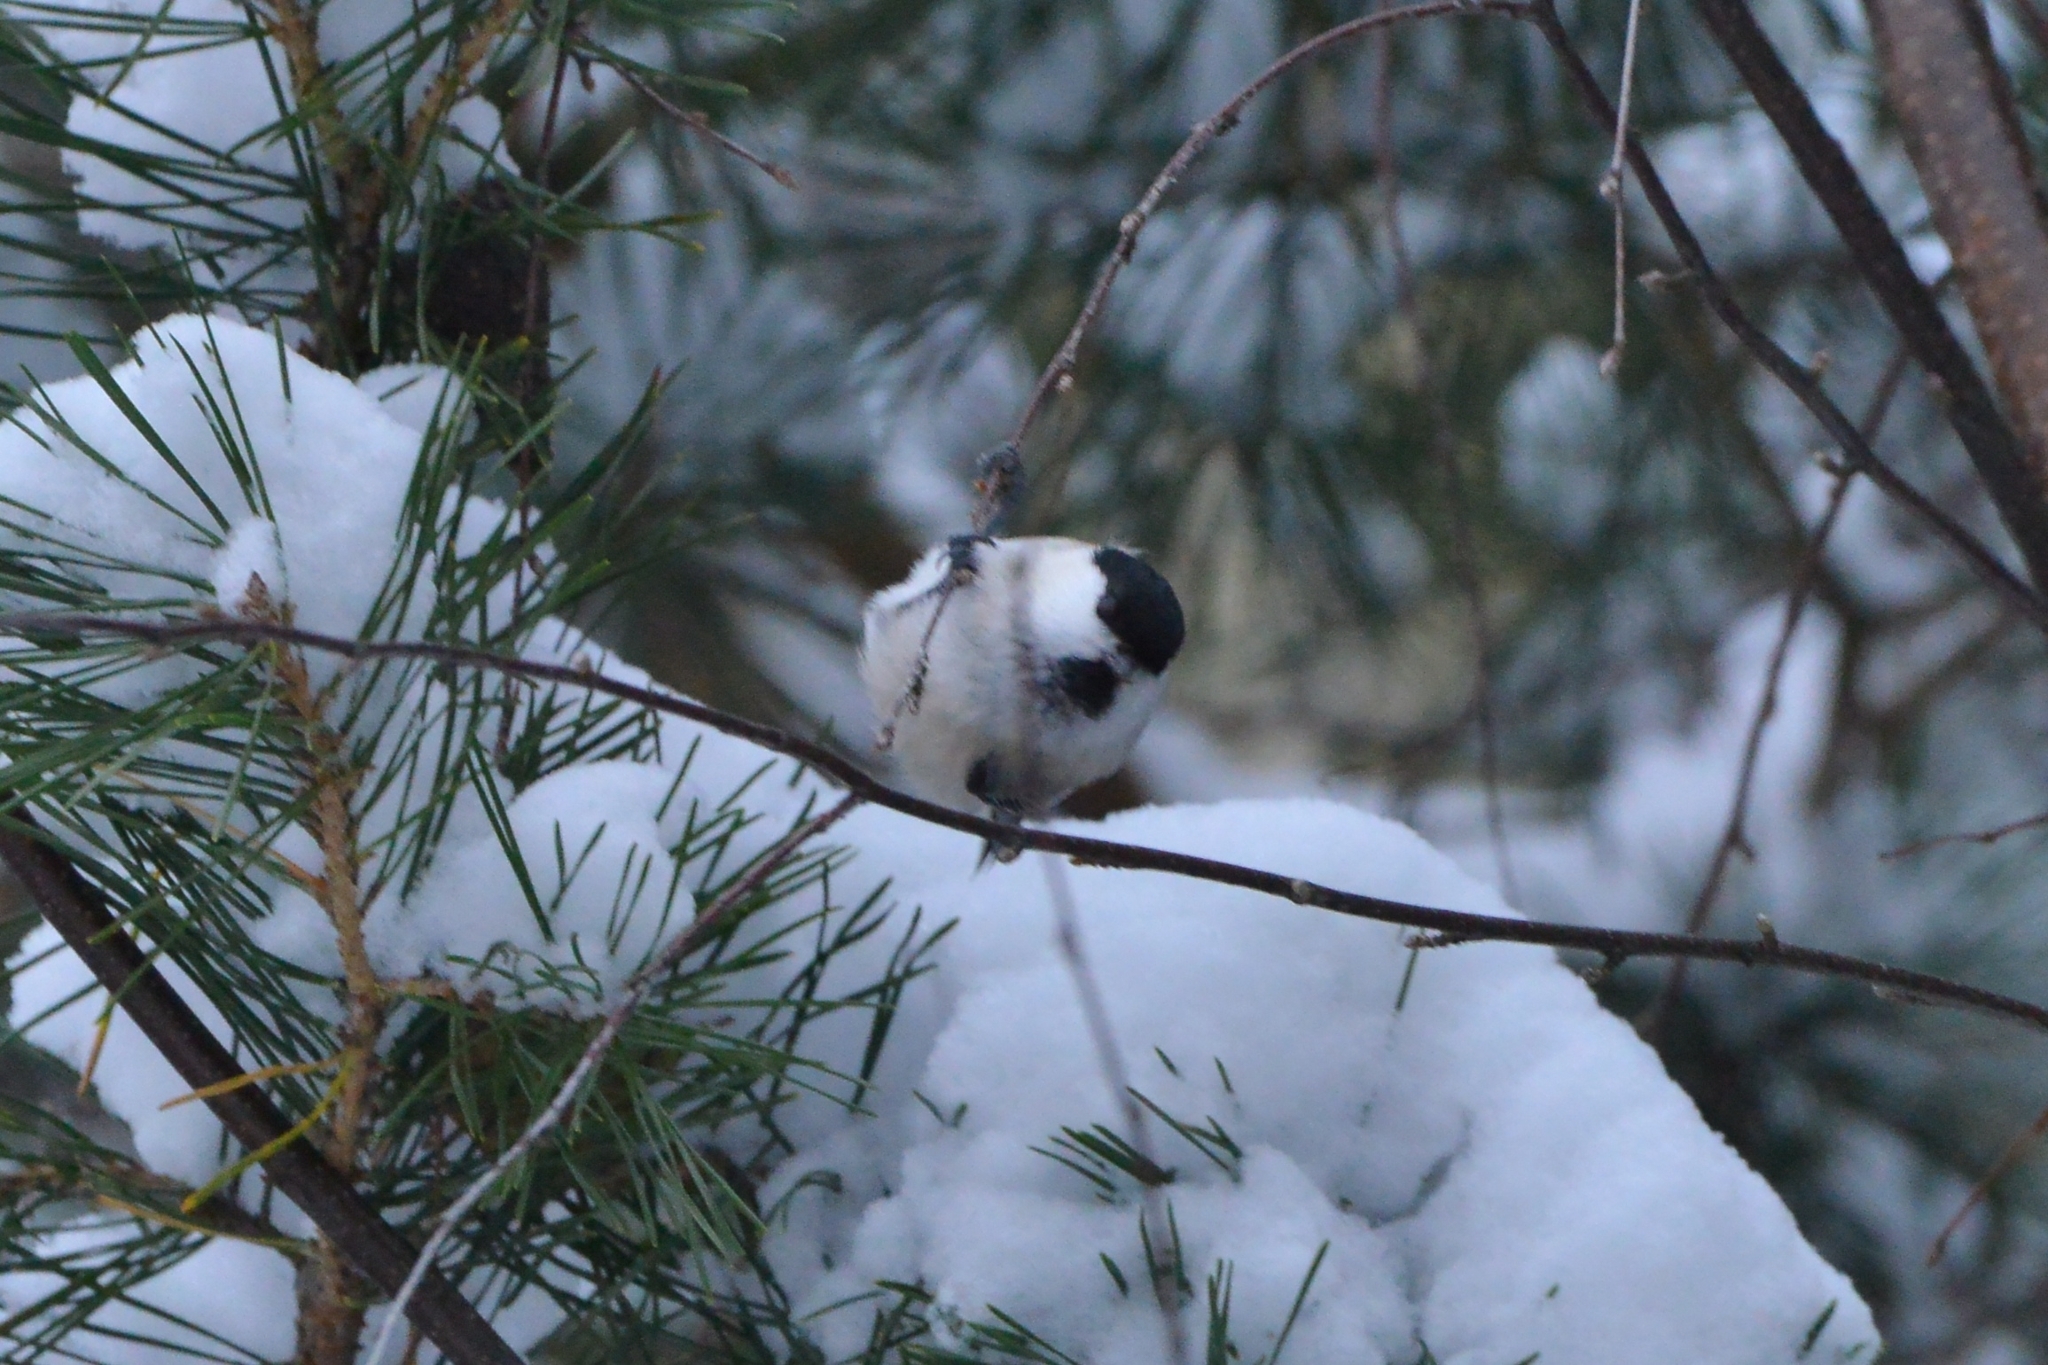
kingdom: Animalia
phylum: Chordata
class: Aves
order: Passeriformes
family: Paridae
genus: Poecile
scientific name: Poecile montanus
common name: Willow tit
